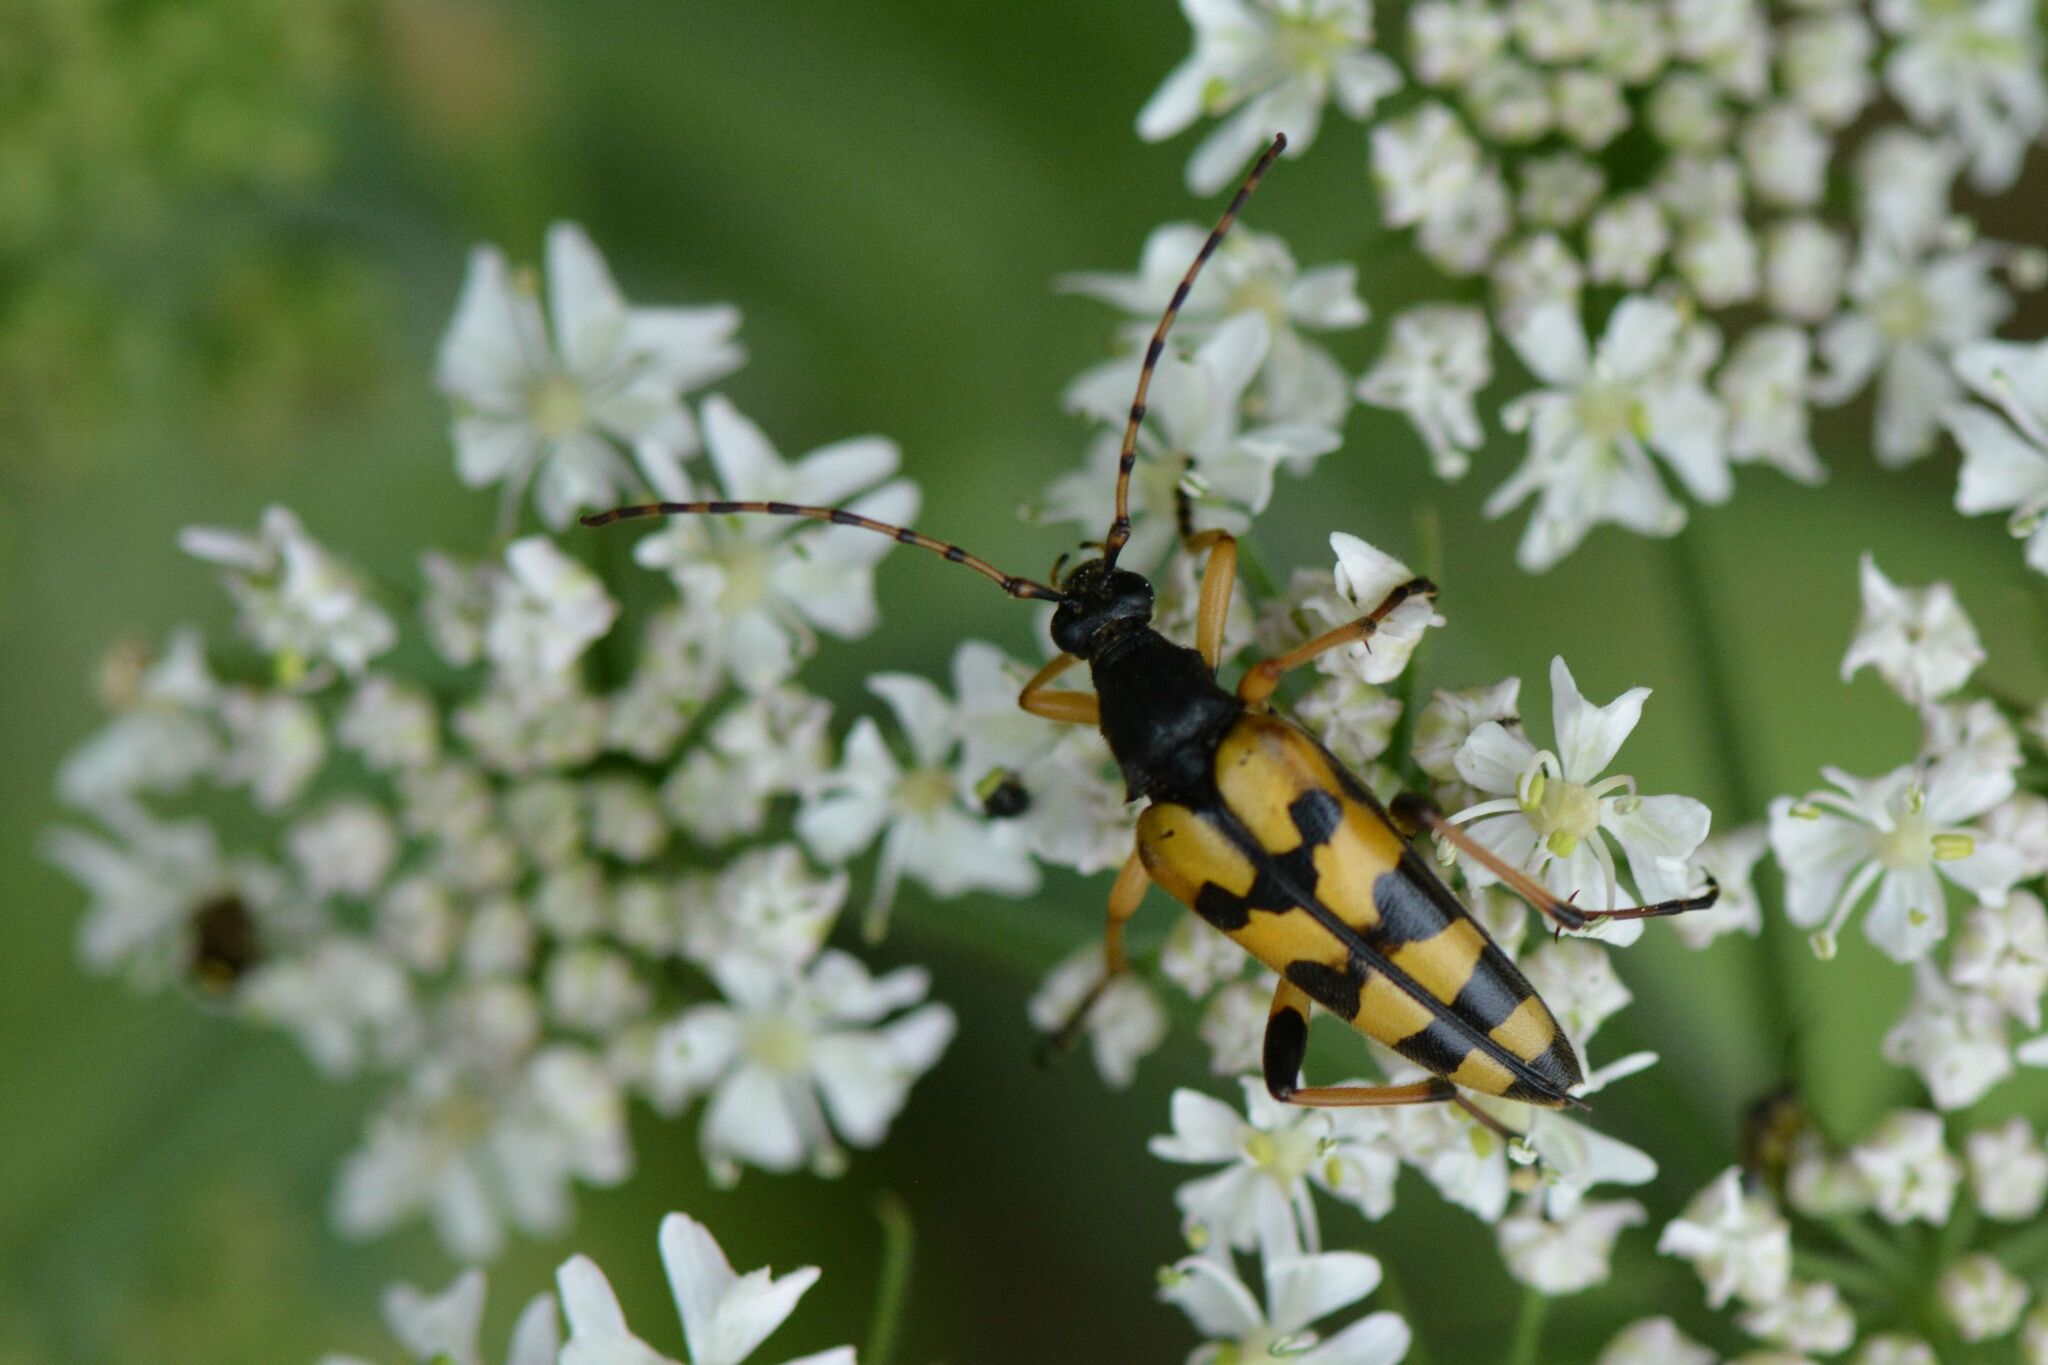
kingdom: Animalia
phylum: Arthropoda
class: Insecta
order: Coleoptera
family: Cerambycidae
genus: Rutpela
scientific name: Rutpela maculata
